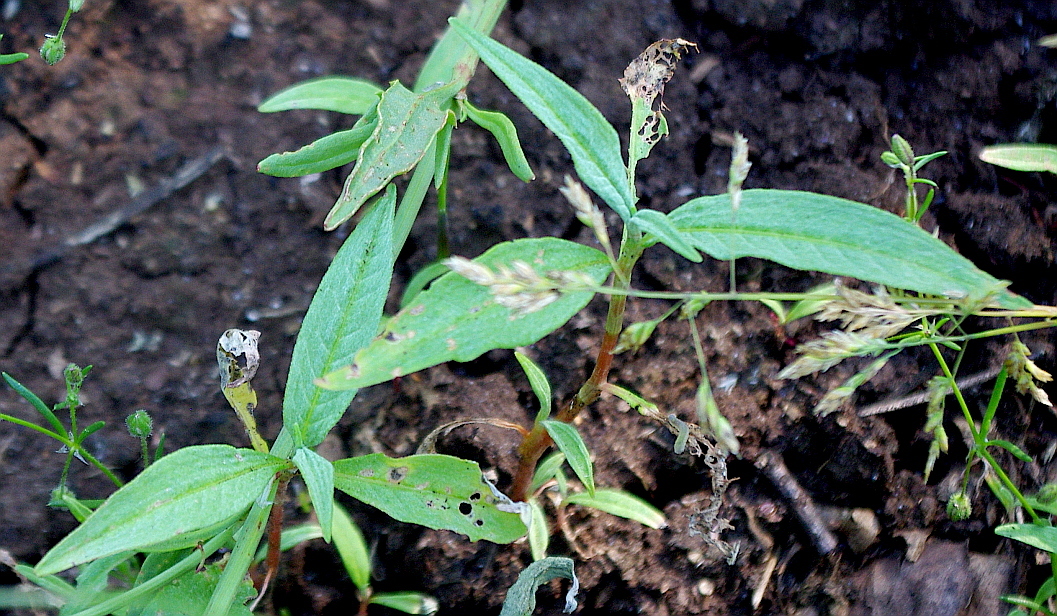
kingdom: Plantae
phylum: Tracheophyta
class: Magnoliopsida
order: Caryophyllales
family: Polygonaceae
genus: Persicaria
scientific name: Persicaria amphibia
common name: Amphibious bistort
